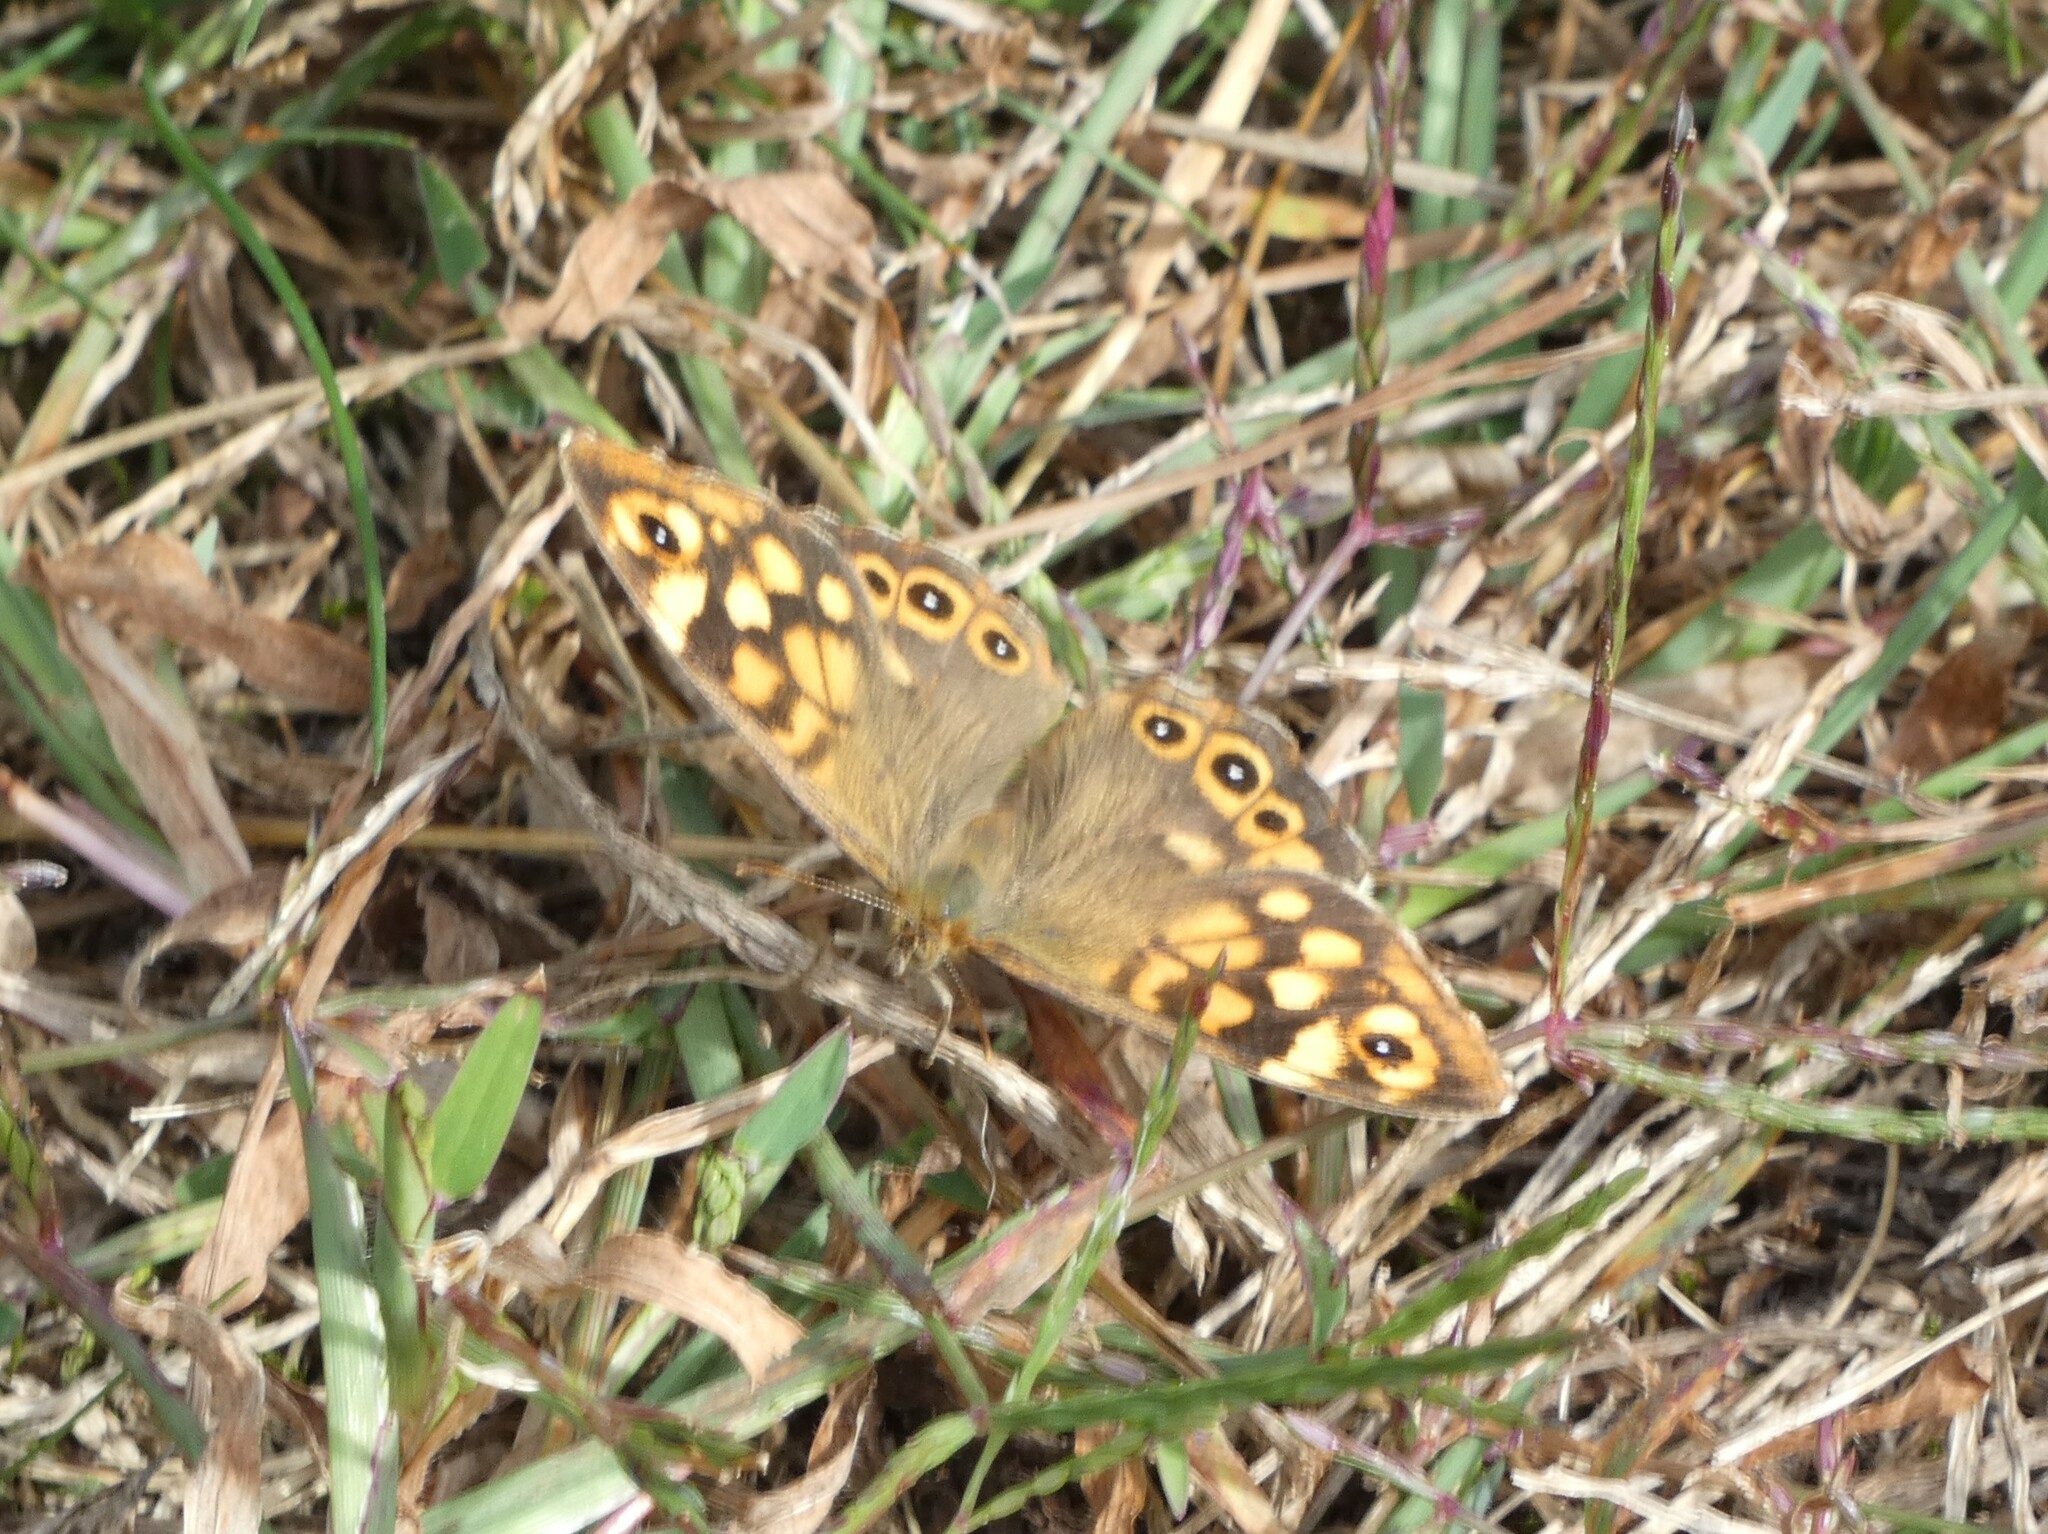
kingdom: Animalia
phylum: Arthropoda
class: Insecta
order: Lepidoptera
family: Nymphalidae
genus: Pararge
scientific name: Pararge aegeria
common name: Speckled wood
